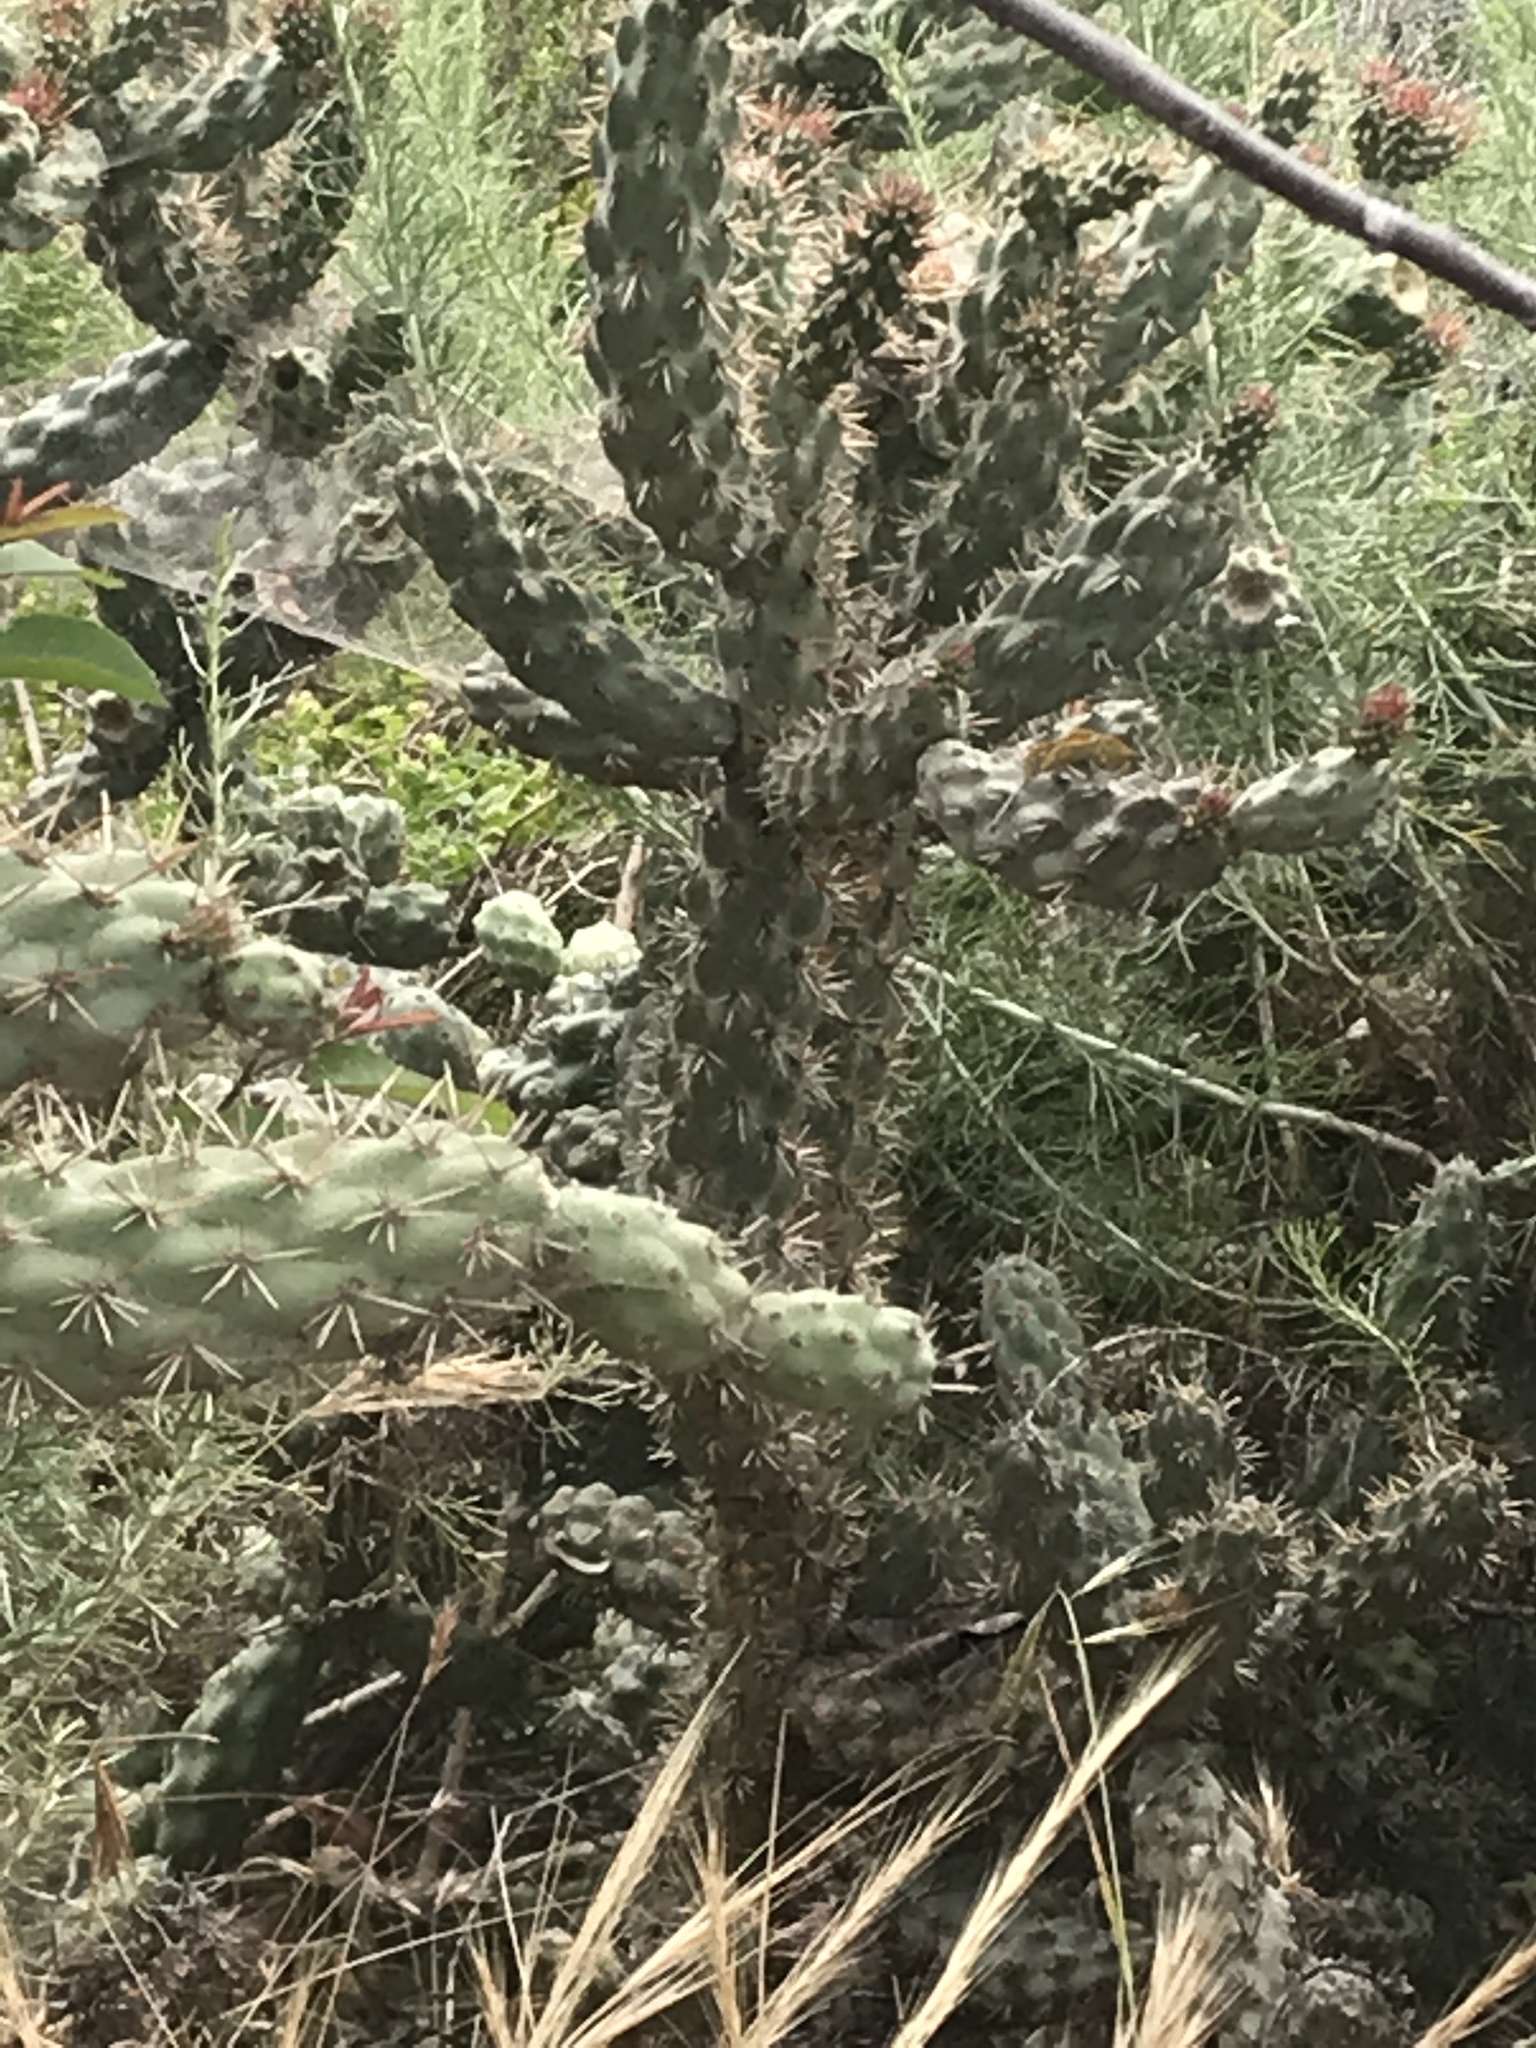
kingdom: Plantae
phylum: Tracheophyta
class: Magnoliopsida
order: Caryophyllales
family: Cactaceae
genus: Cylindropuntia
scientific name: Cylindropuntia prolifera
